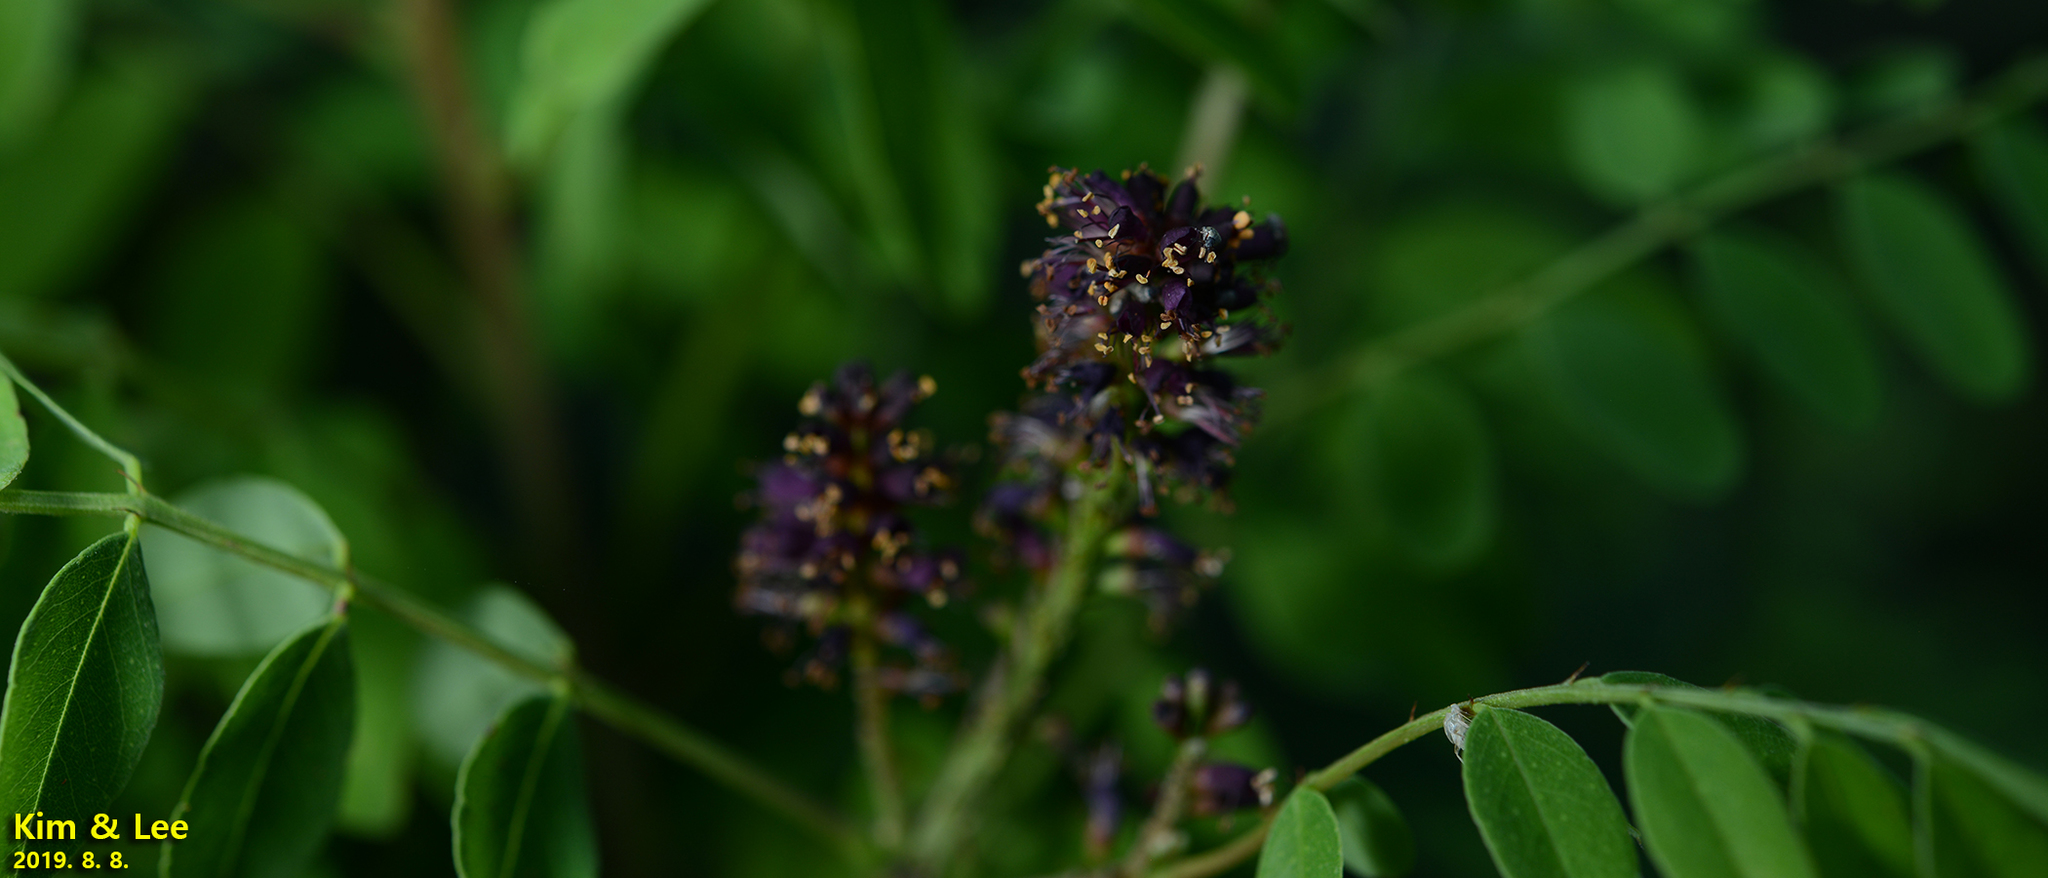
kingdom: Plantae
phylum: Tracheophyta
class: Magnoliopsida
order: Fabales
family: Fabaceae
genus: Amorpha
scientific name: Amorpha fruticosa
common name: False indigo
